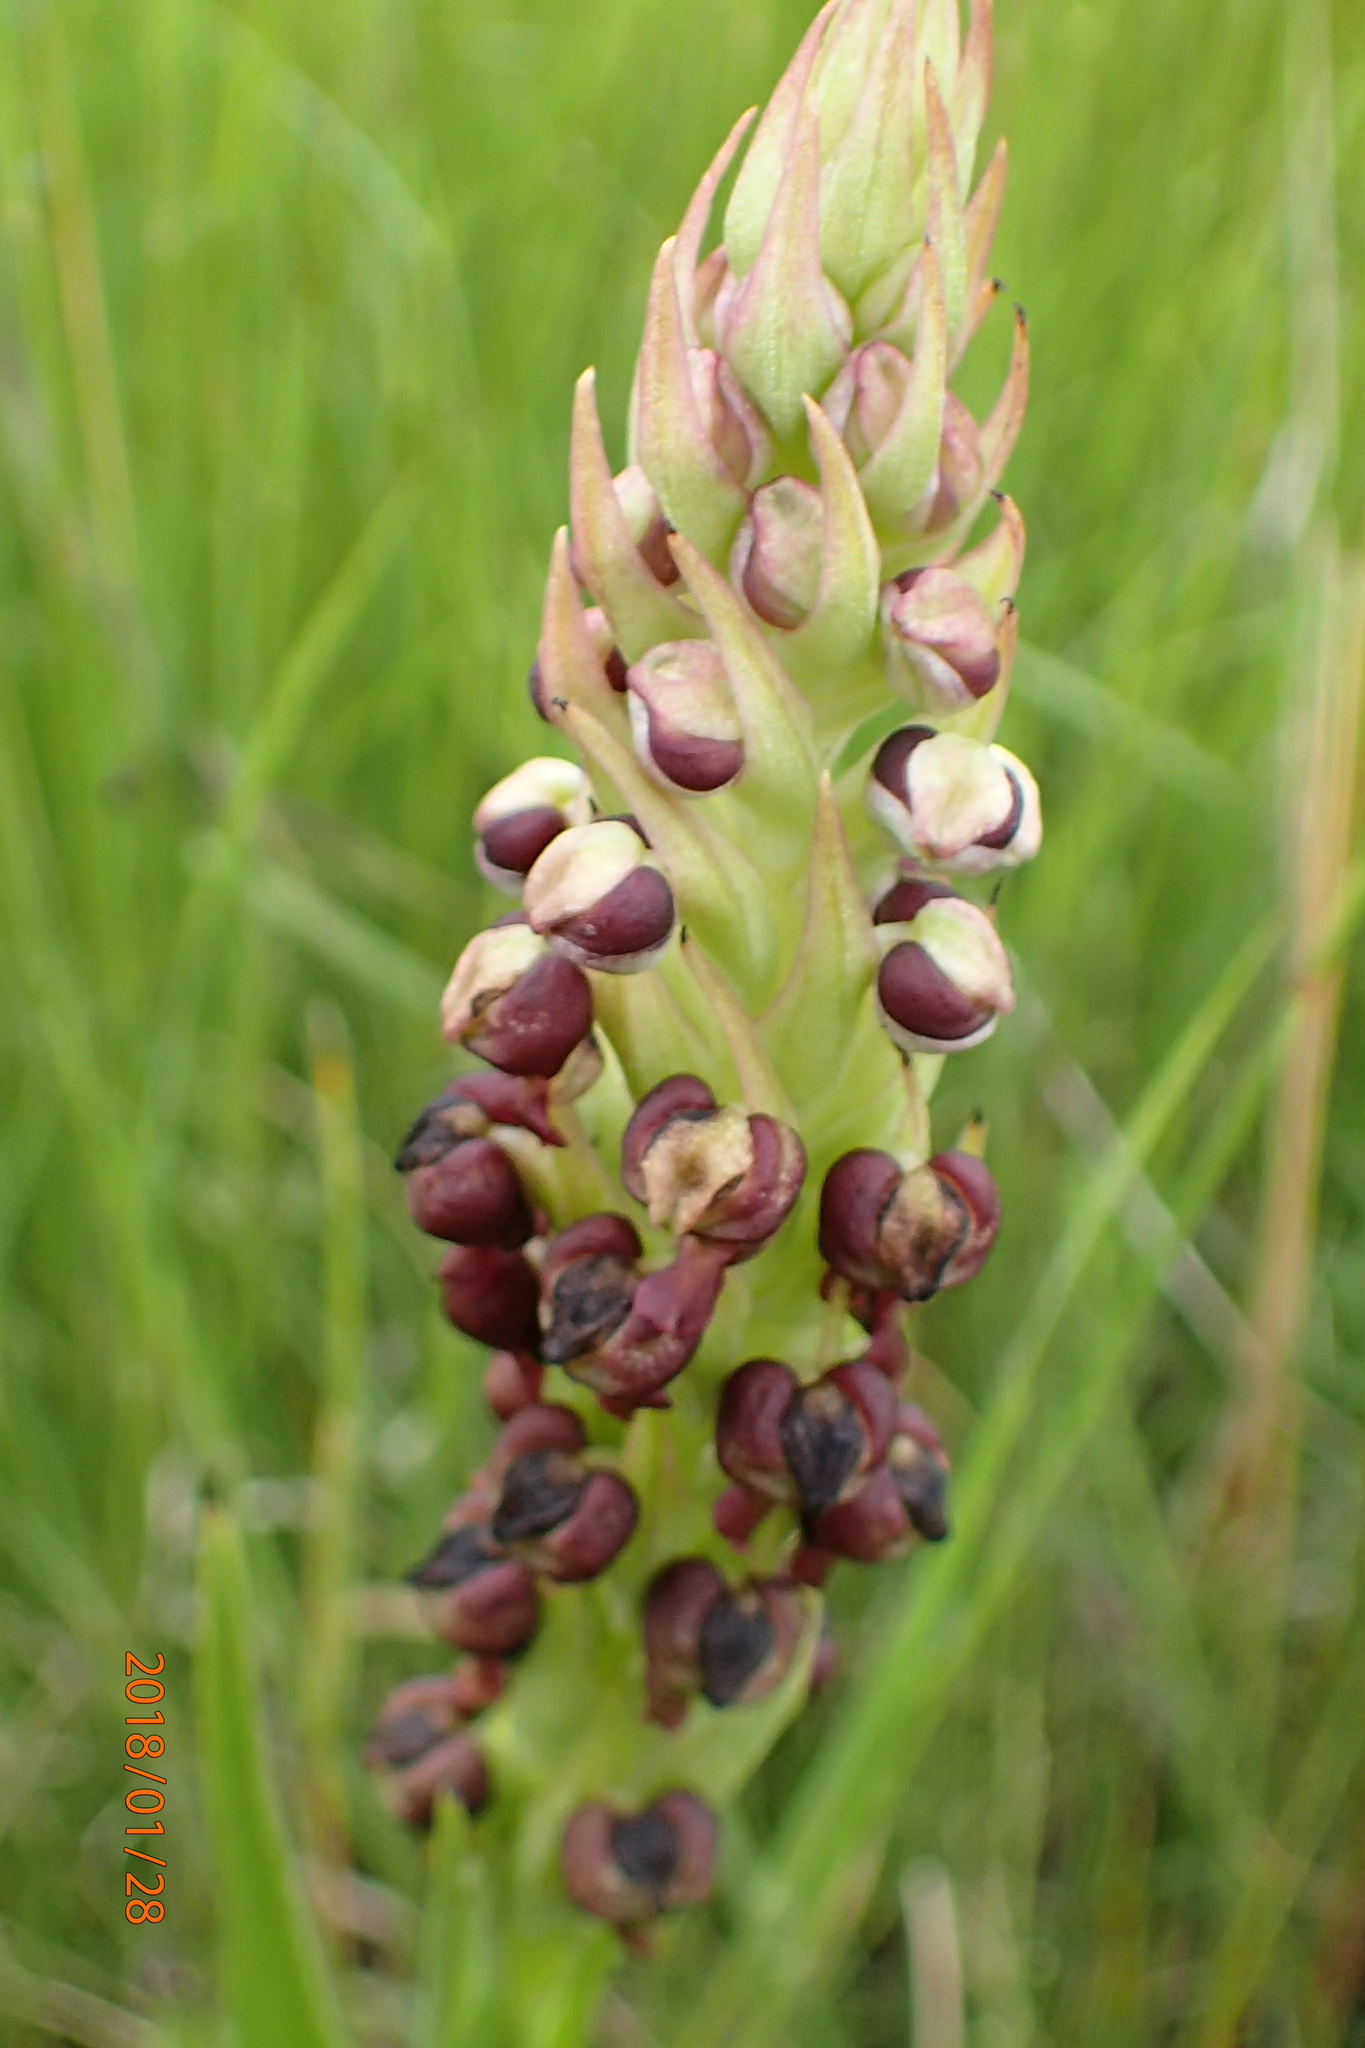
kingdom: Plantae
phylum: Tracheophyta
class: Liliopsida
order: Asparagales
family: Orchidaceae
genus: Corycium
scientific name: Corycium nigrescens
